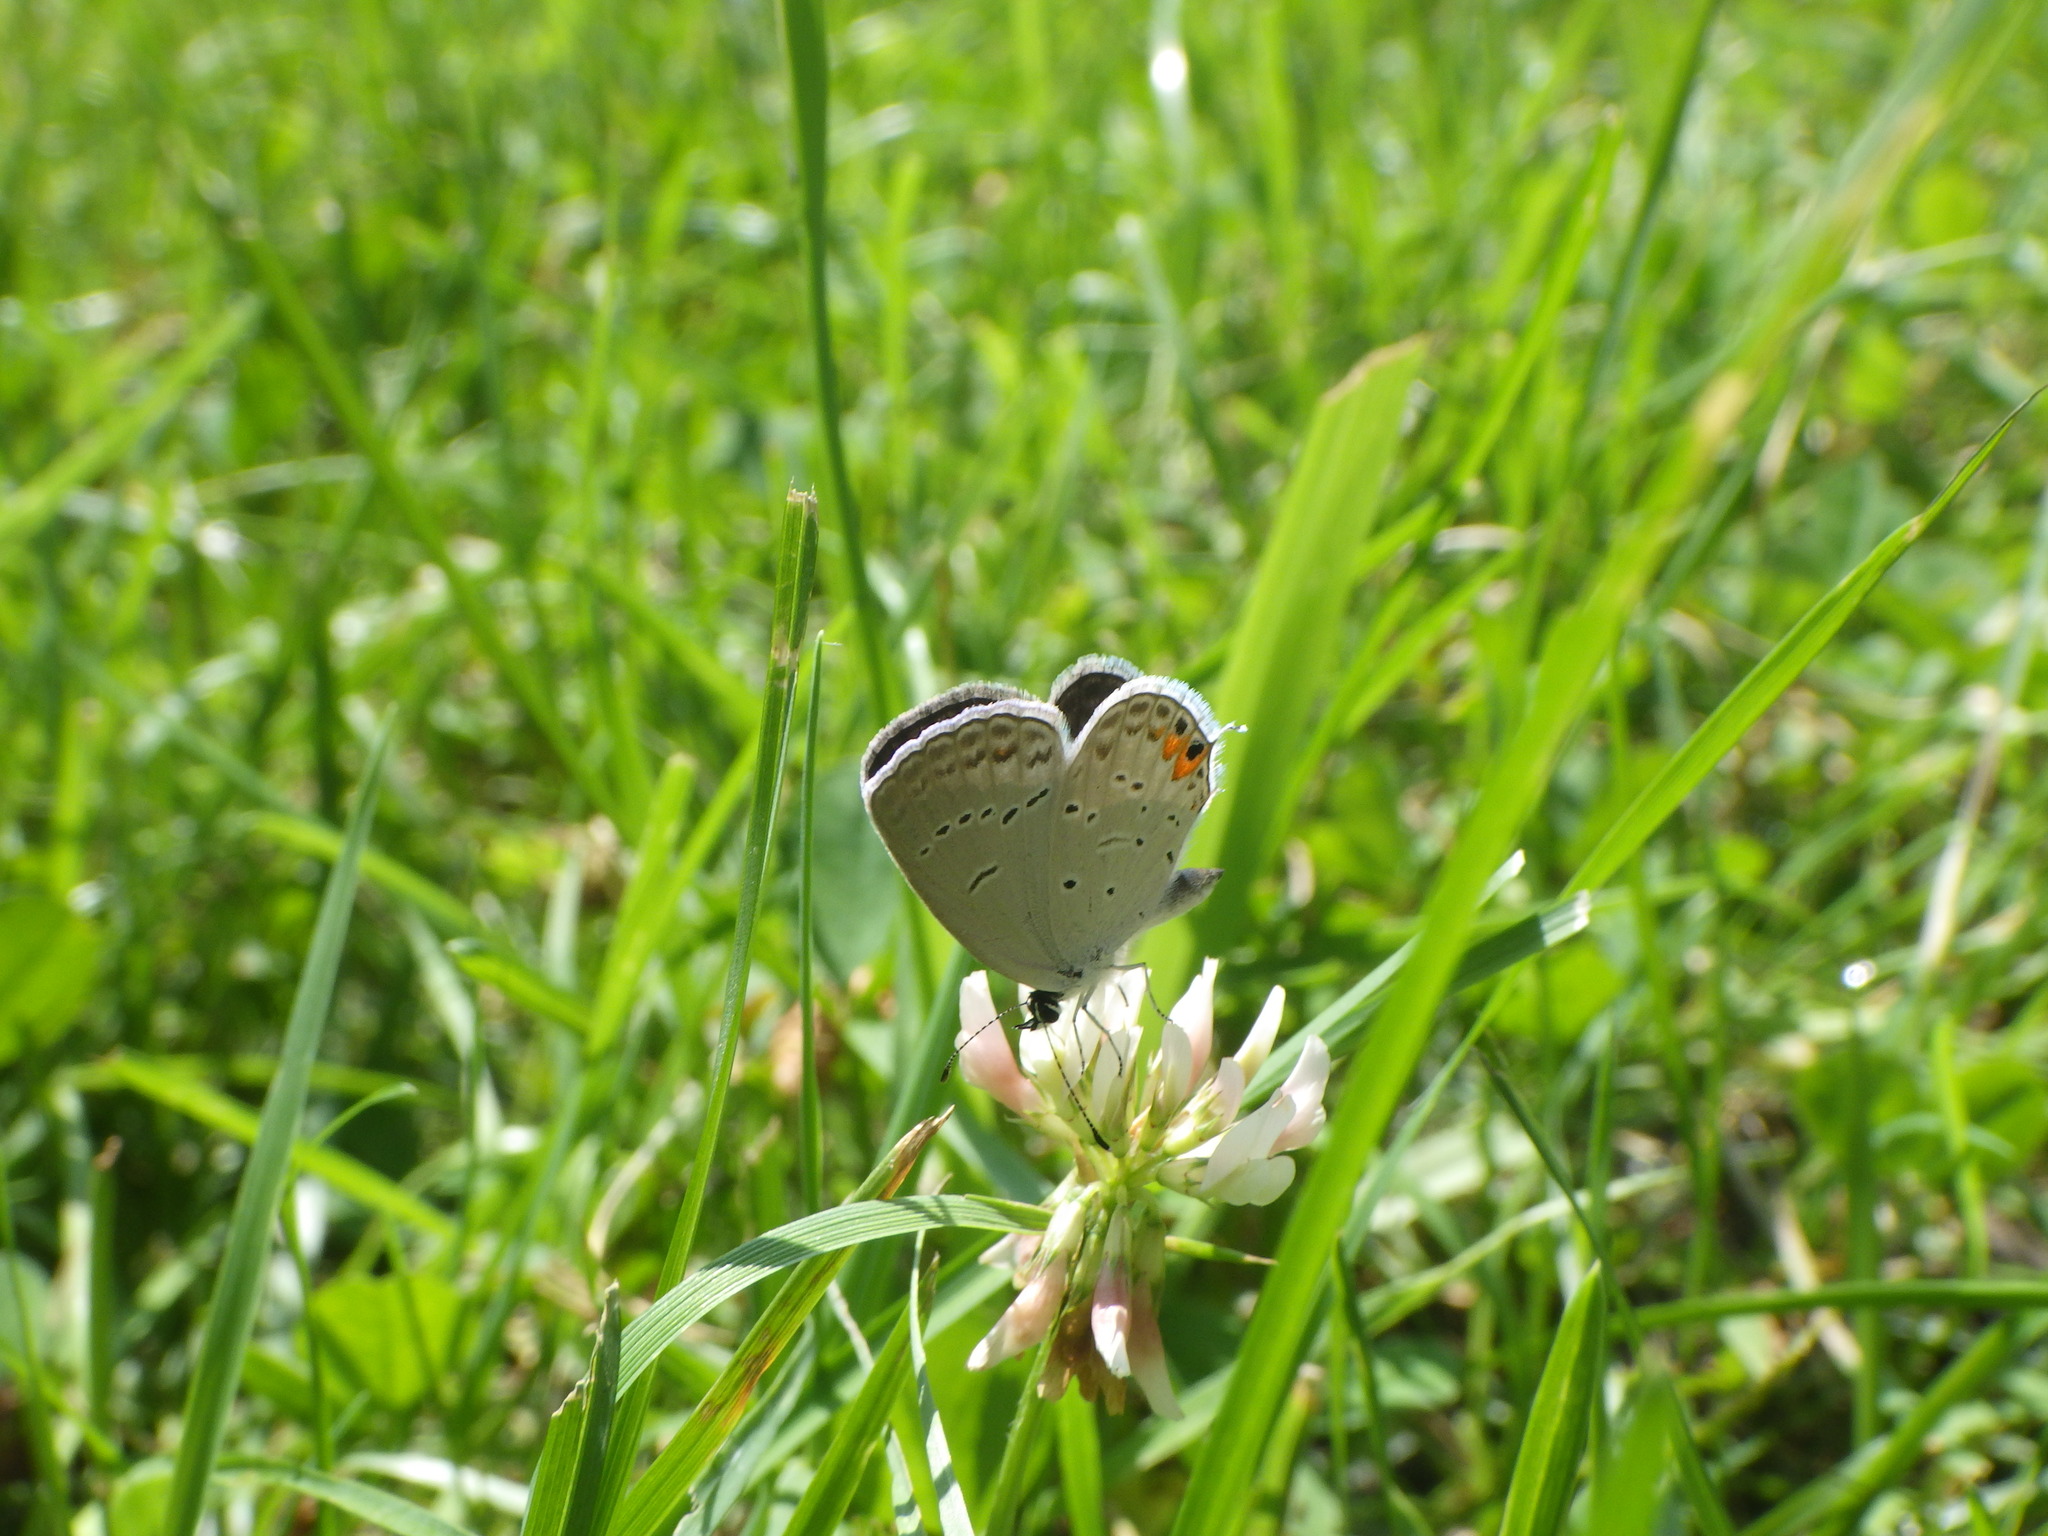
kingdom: Animalia
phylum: Arthropoda
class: Insecta
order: Lepidoptera
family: Lycaenidae
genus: Elkalyce
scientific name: Elkalyce comyntas
